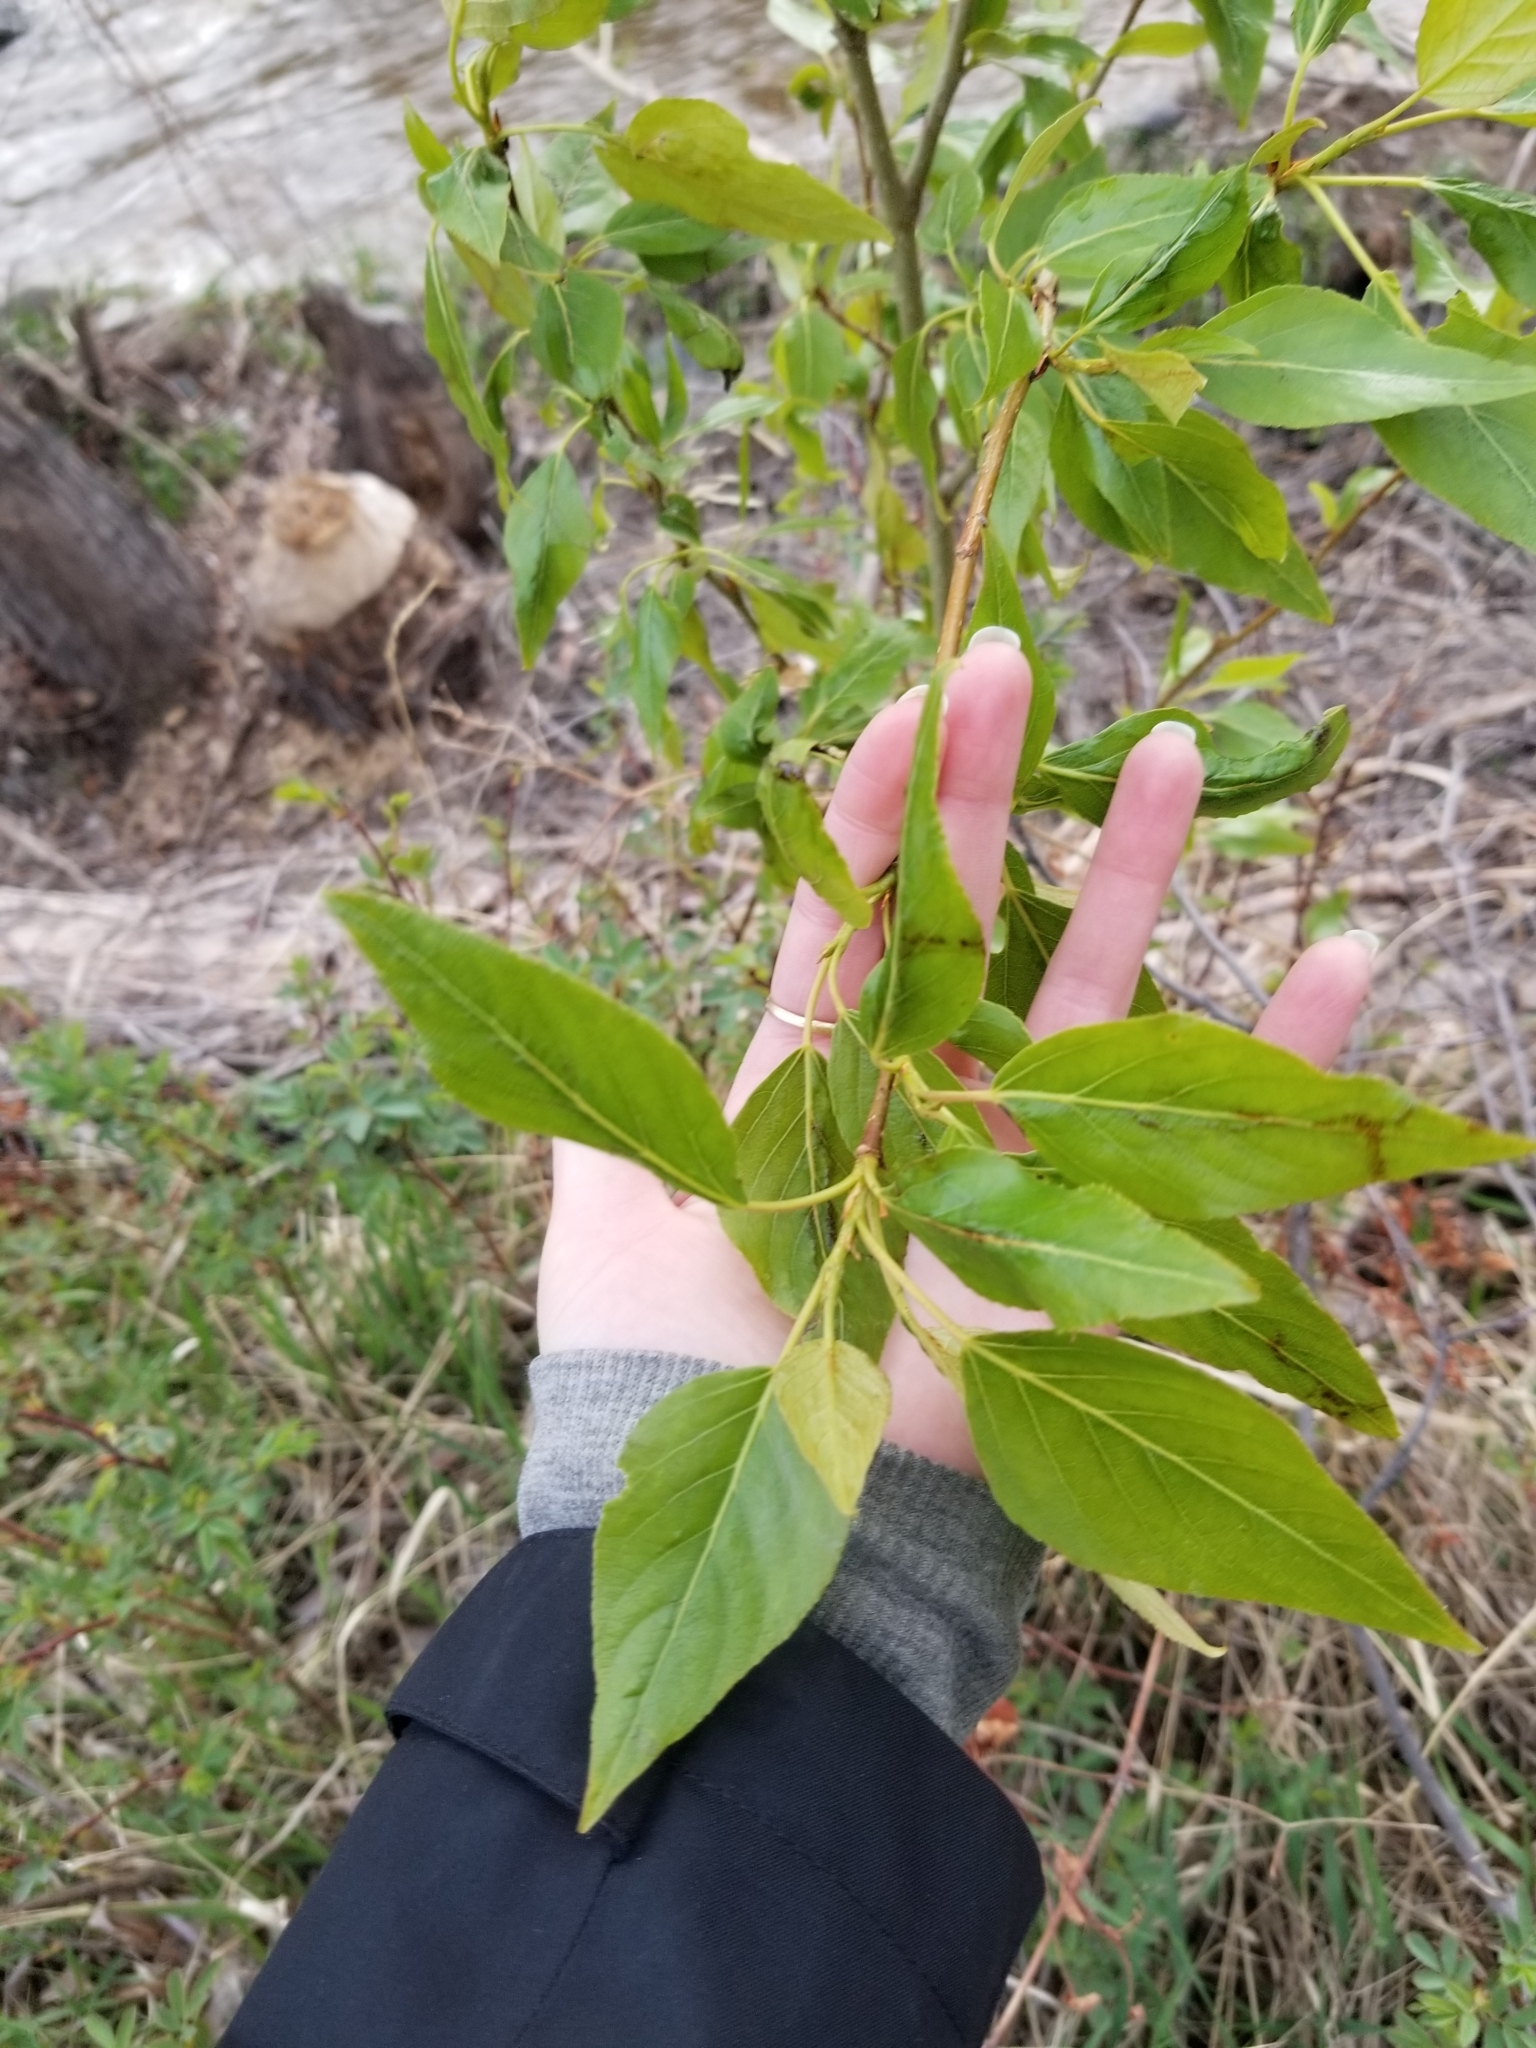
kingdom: Plantae
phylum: Tracheophyta
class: Magnoliopsida
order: Malpighiales
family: Salicaceae
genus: Populus
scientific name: Populus trichocarpa
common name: Black cottonwood
